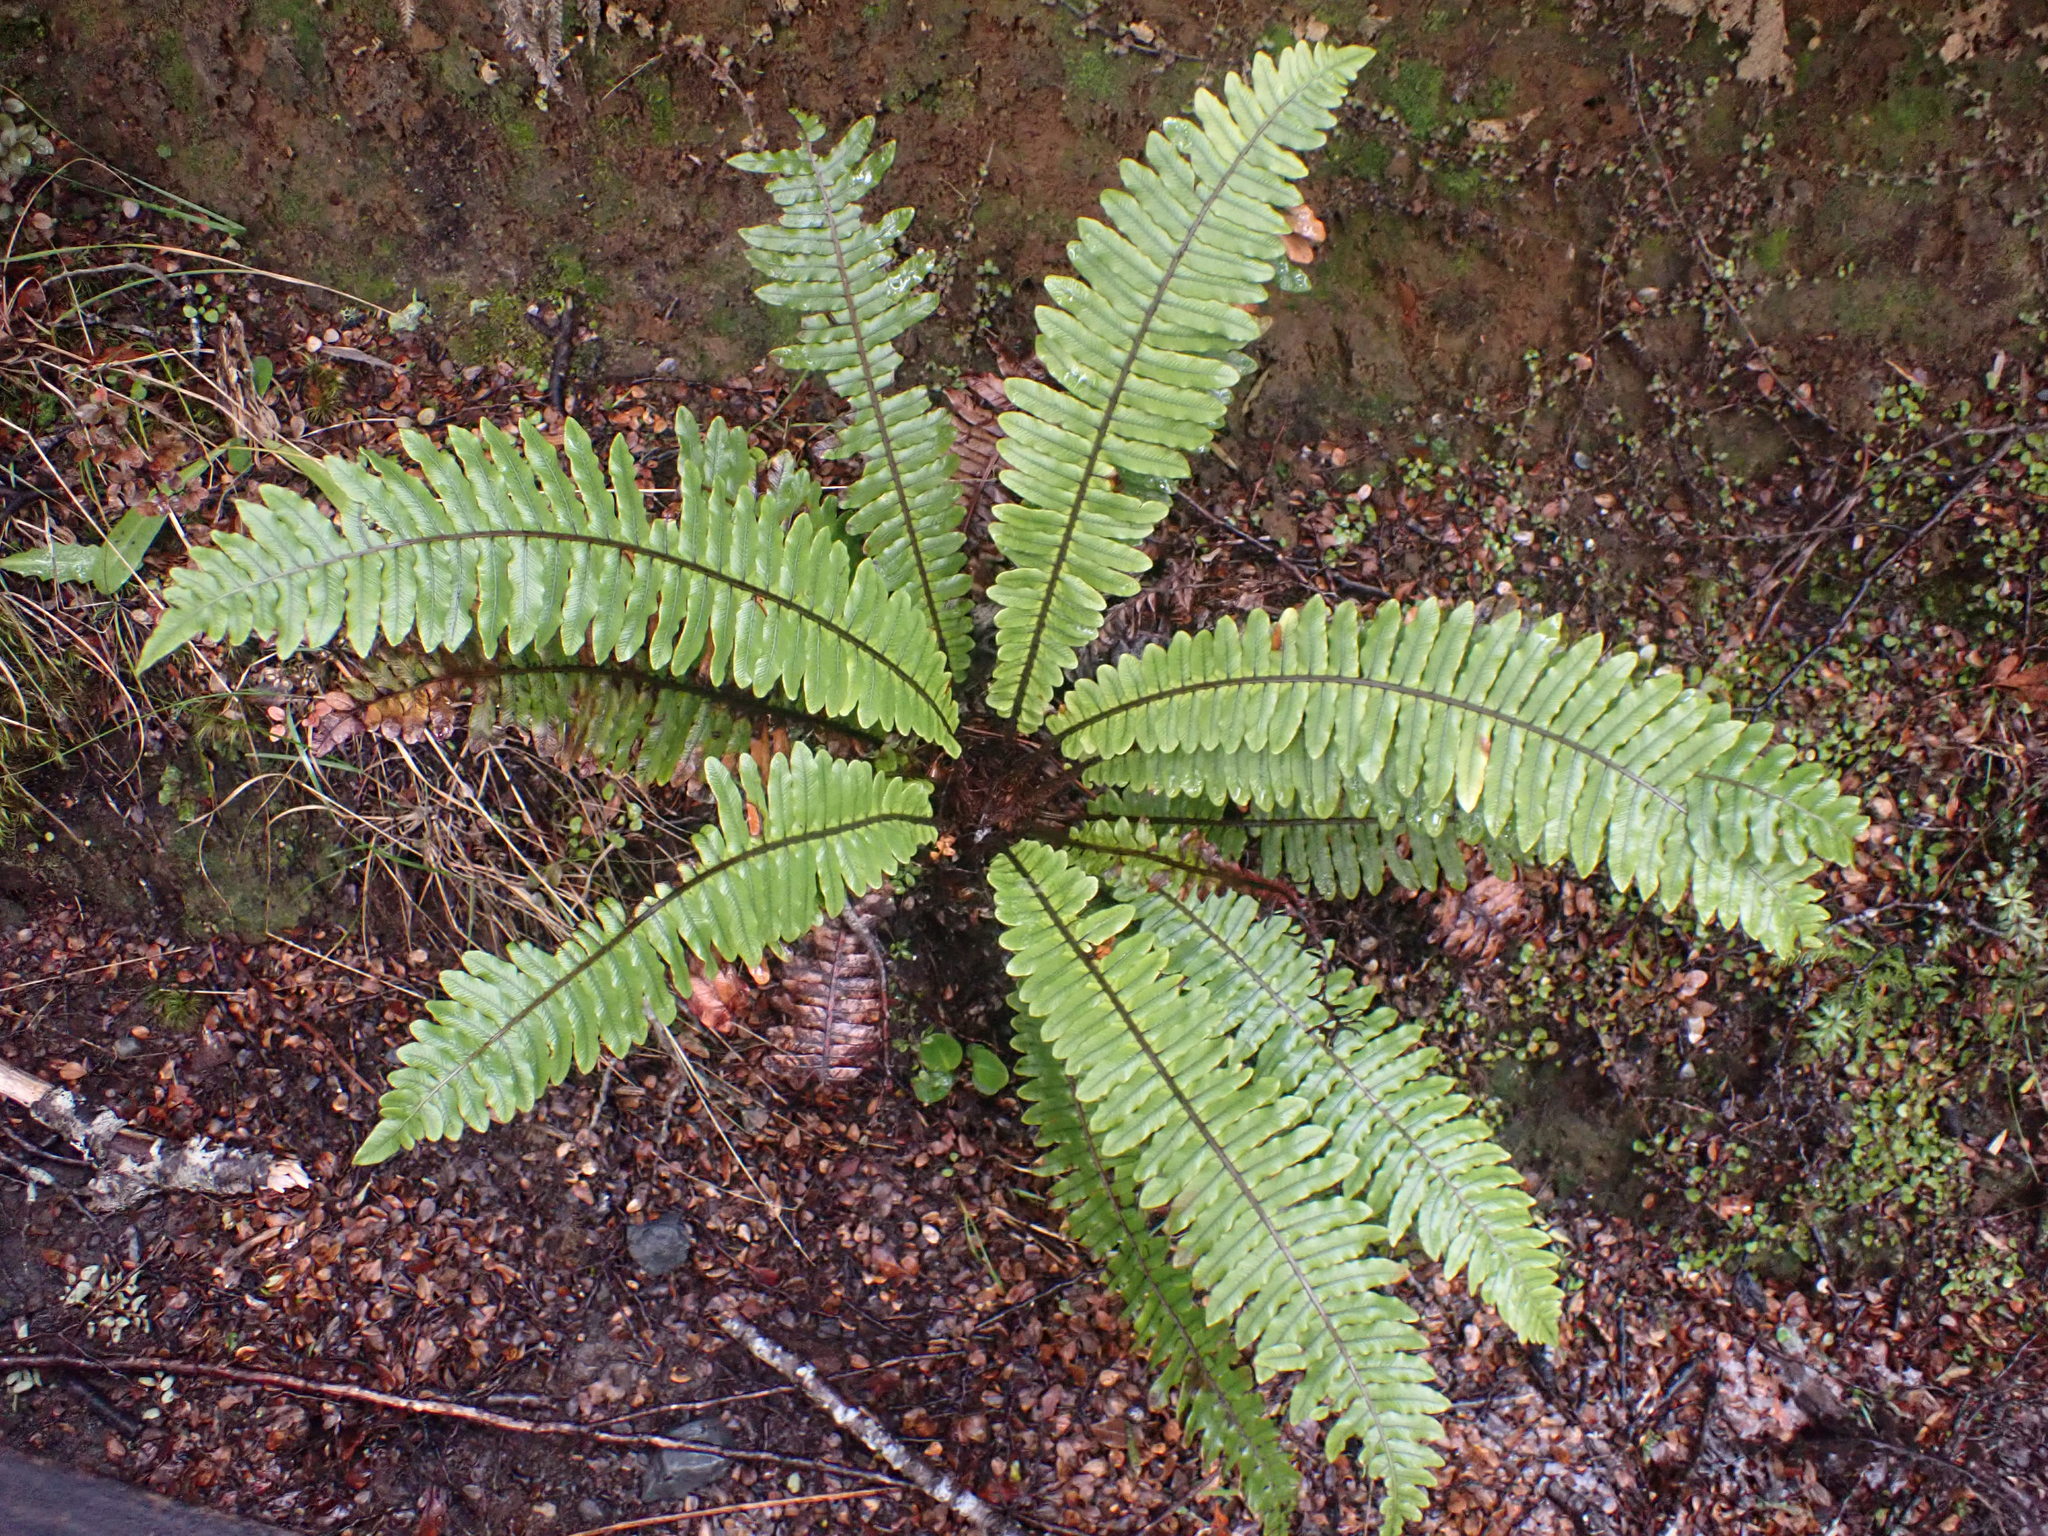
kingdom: Plantae
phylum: Tracheophyta
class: Polypodiopsida
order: Polypodiales
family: Blechnaceae
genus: Lomaria
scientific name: Lomaria discolor
